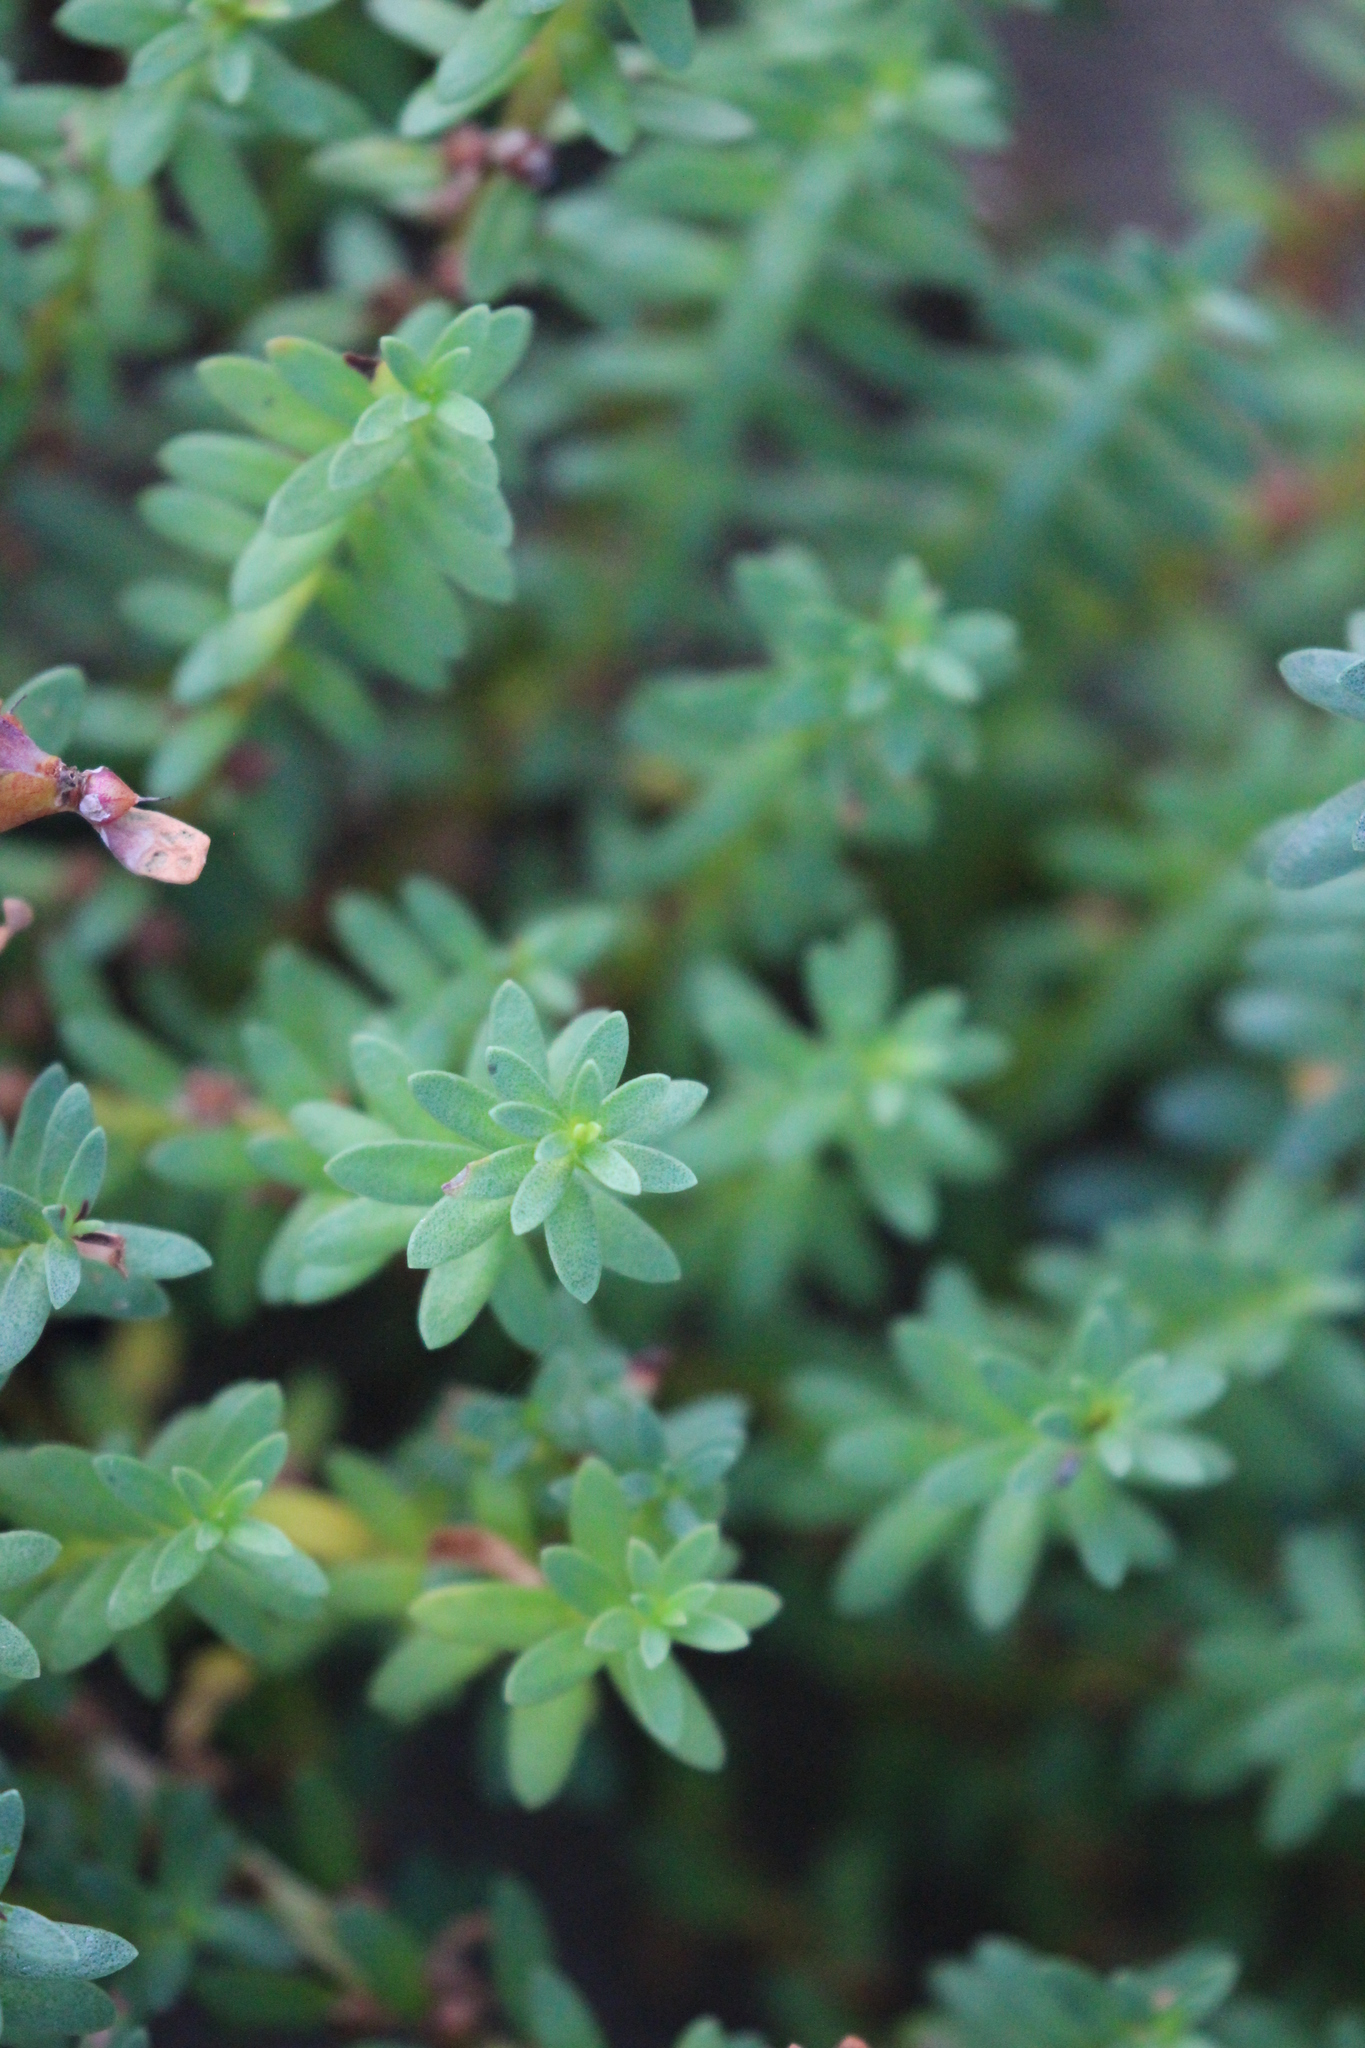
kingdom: Plantae
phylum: Tracheophyta
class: Magnoliopsida
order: Ericales
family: Primulaceae
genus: Lysimachia
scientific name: Lysimachia maritima
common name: Sea milkwort
